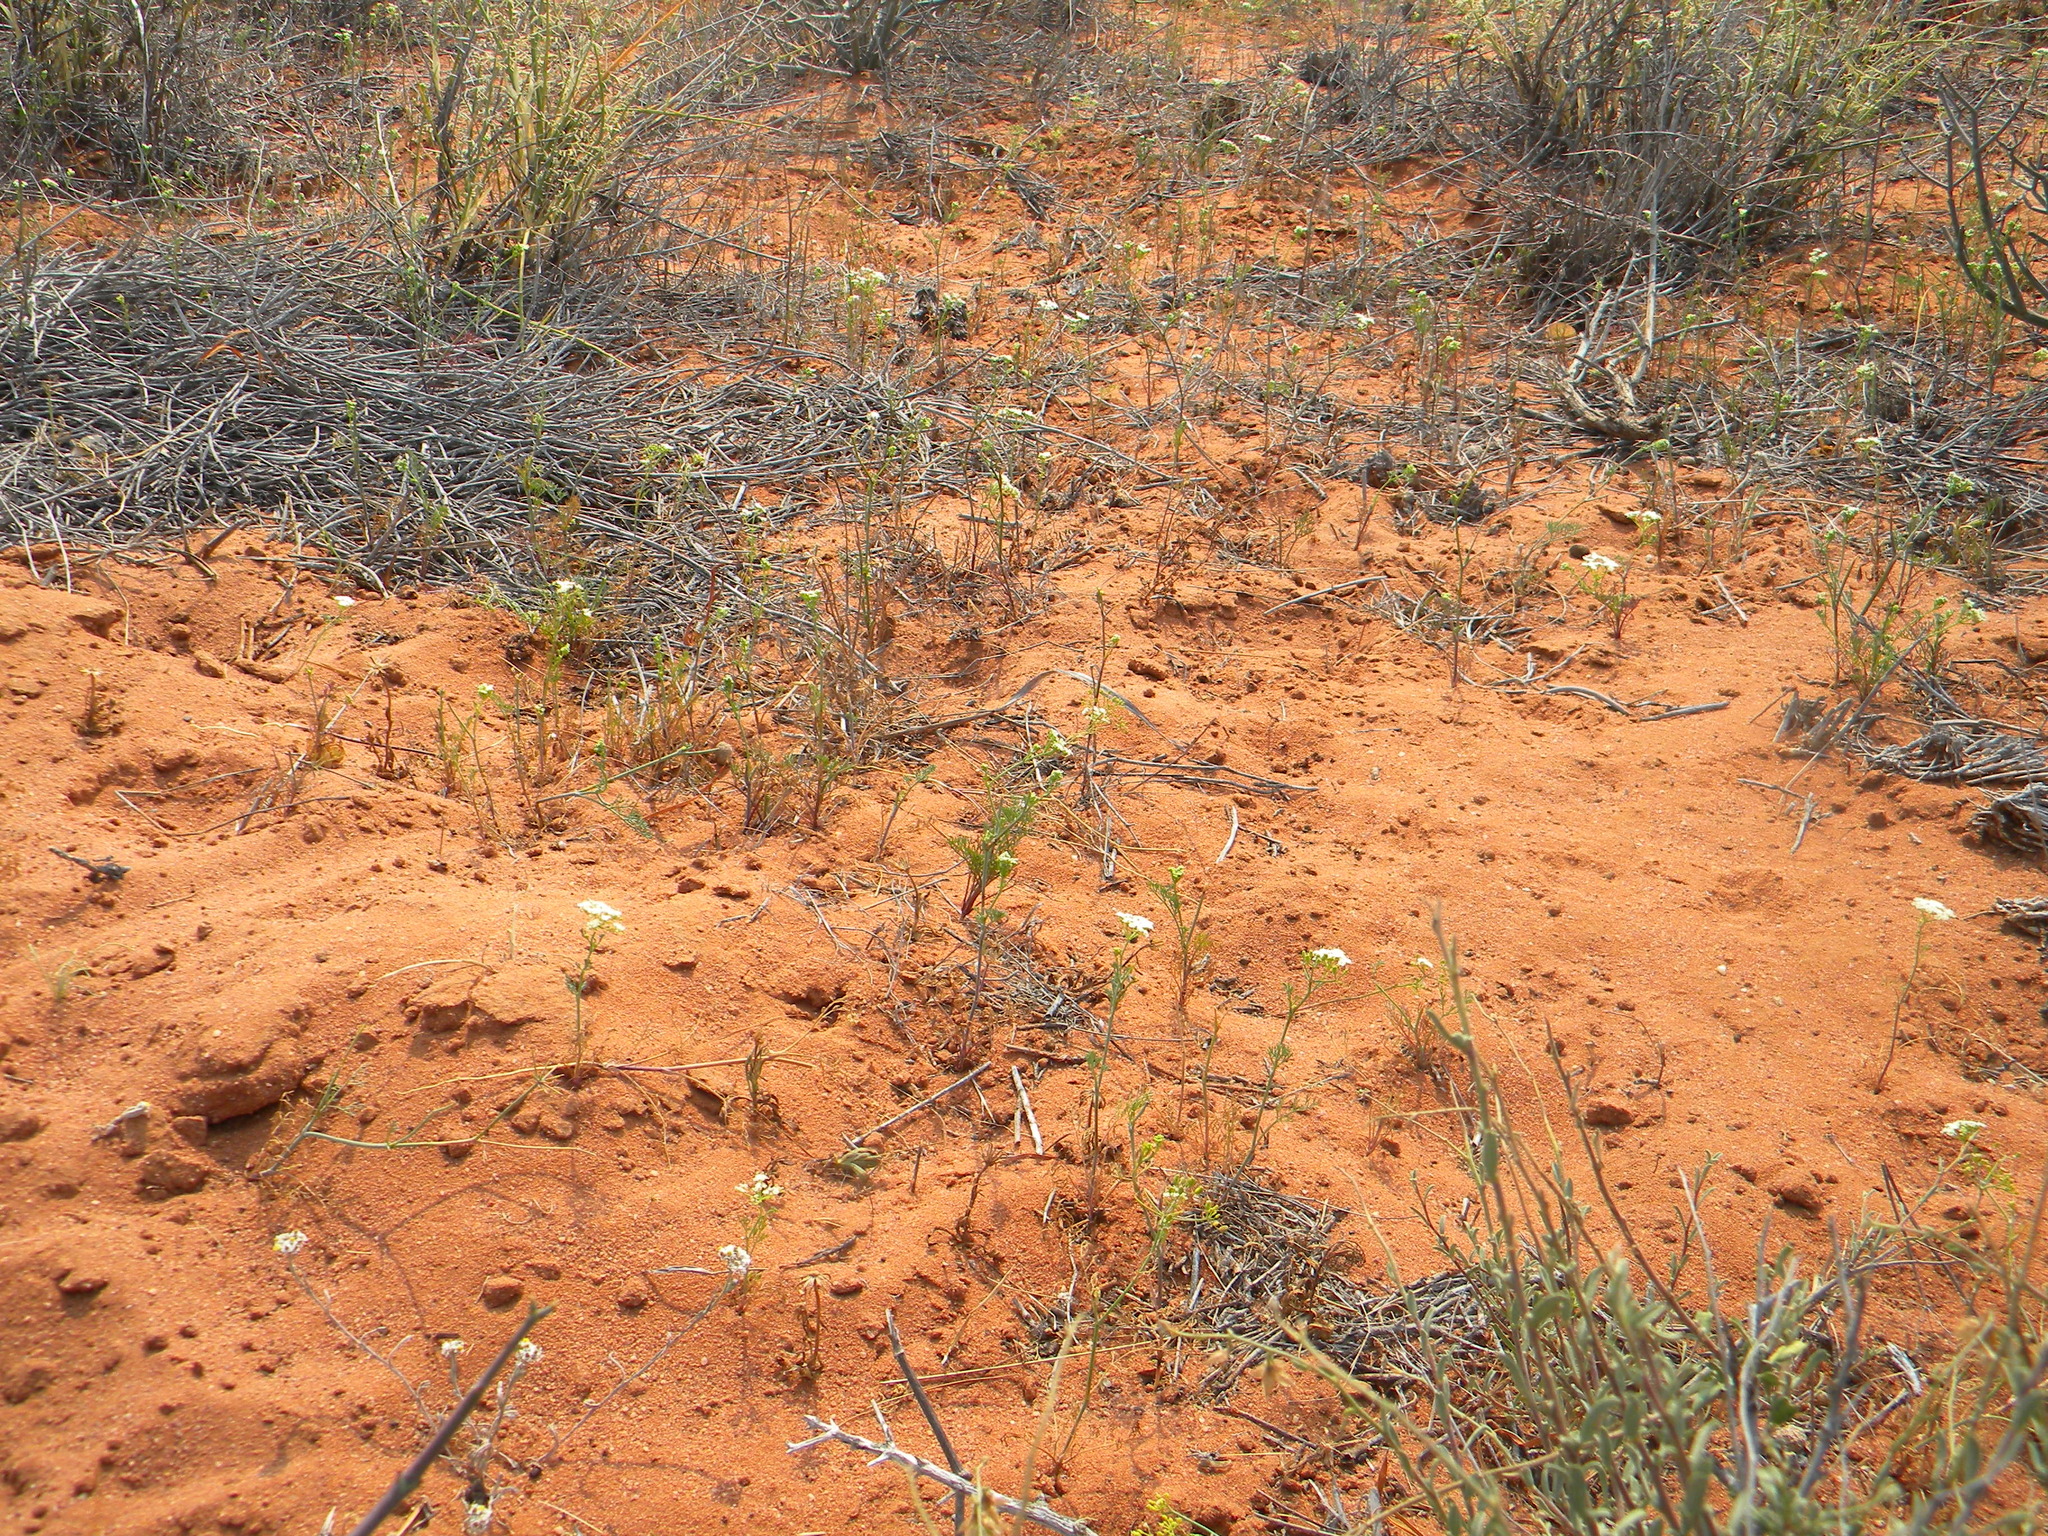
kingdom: Plantae
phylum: Tracheophyta
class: Magnoliopsida
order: Apiales
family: Apiaceae
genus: Dasispermum
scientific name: Dasispermum hispidum
